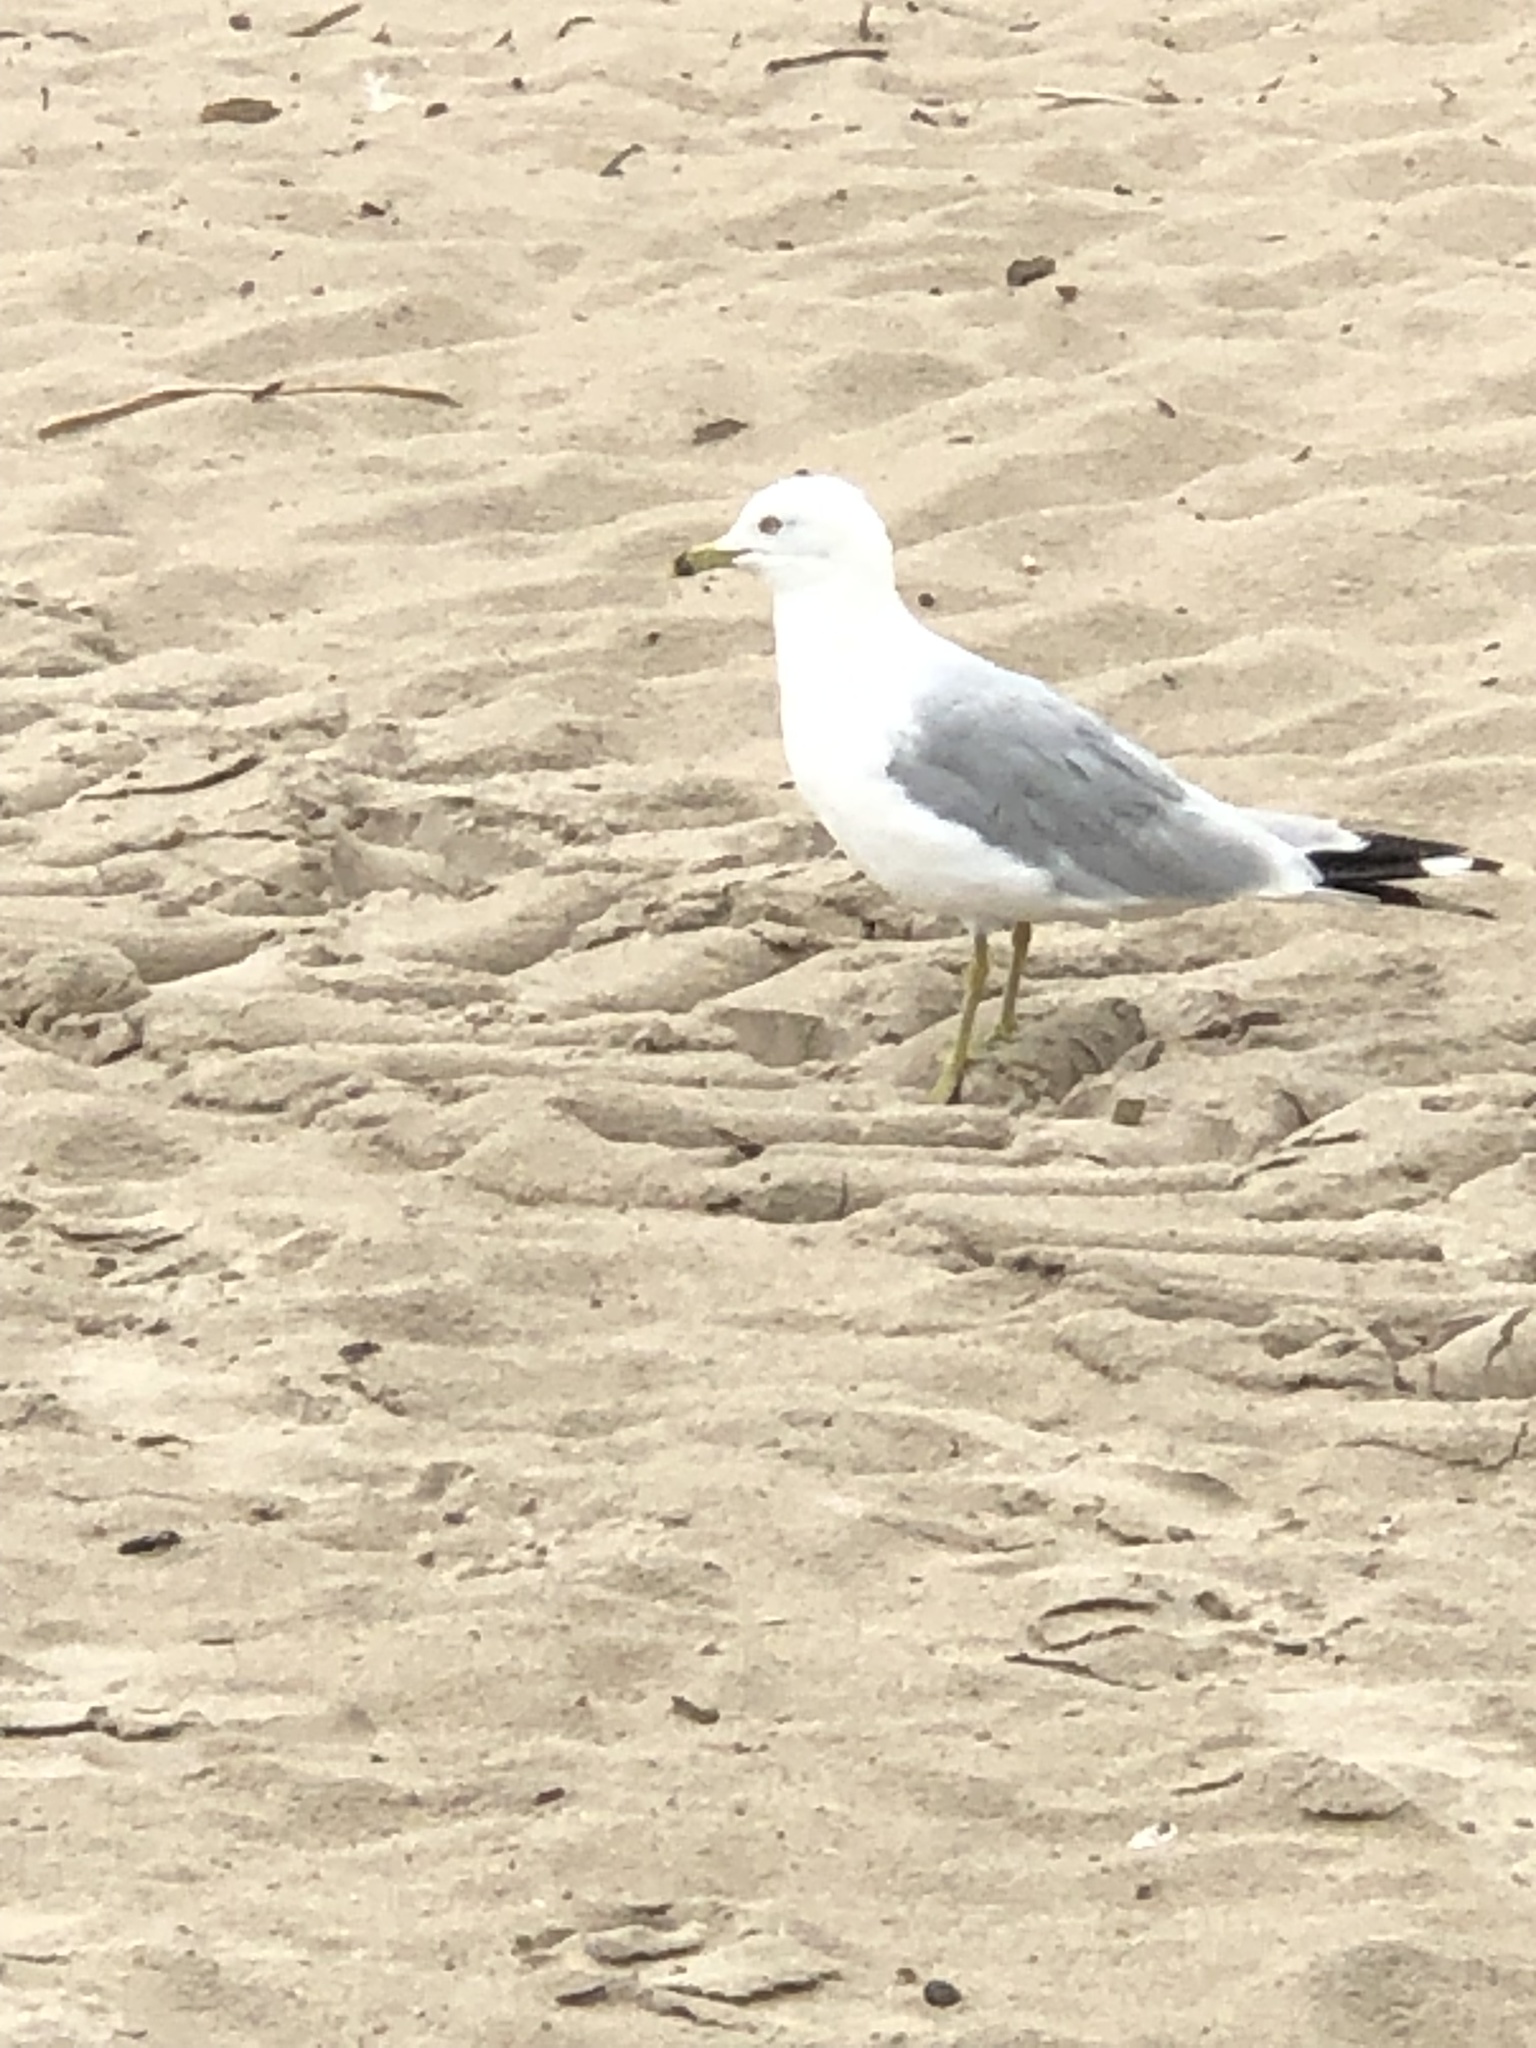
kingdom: Animalia
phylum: Chordata
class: Aves
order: Charadriiformes
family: Laridae
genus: Larus
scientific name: Larus delawarensis
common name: Ring-billed gull
